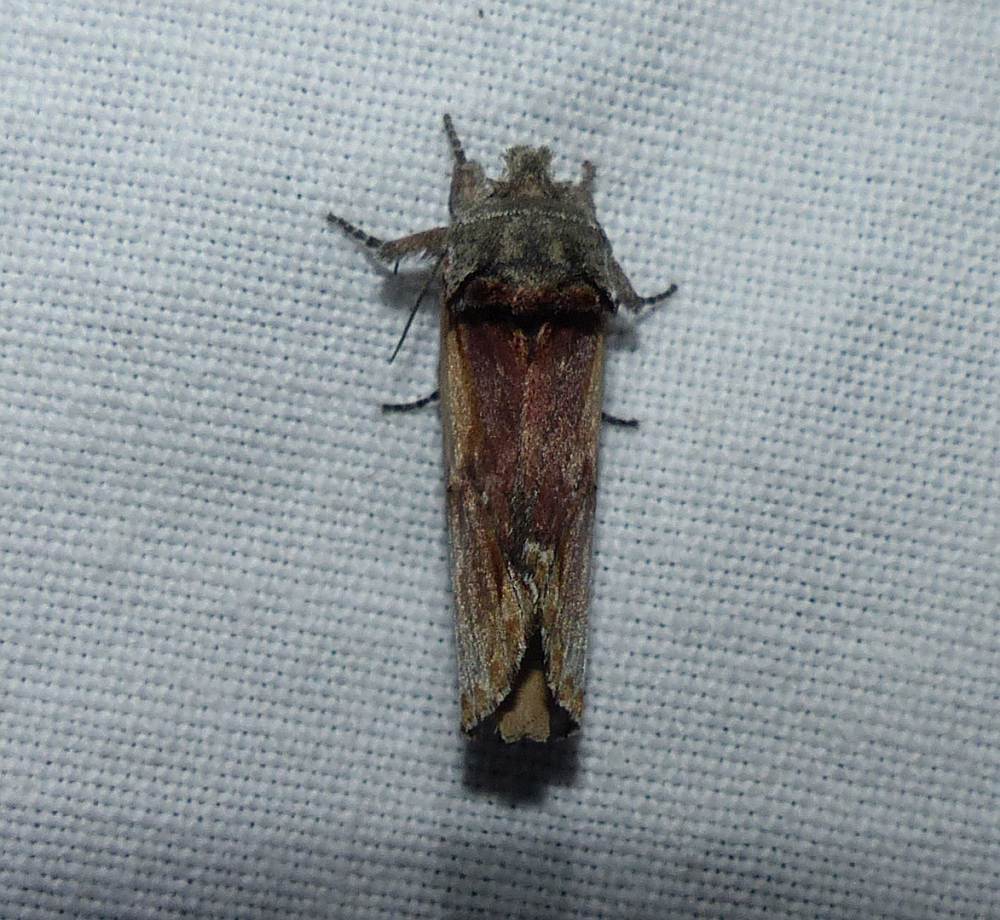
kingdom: Animalia
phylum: Arthropoda
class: Insecta
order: Lepidoptera
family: Notodontidae
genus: Schizura
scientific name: Schizura
